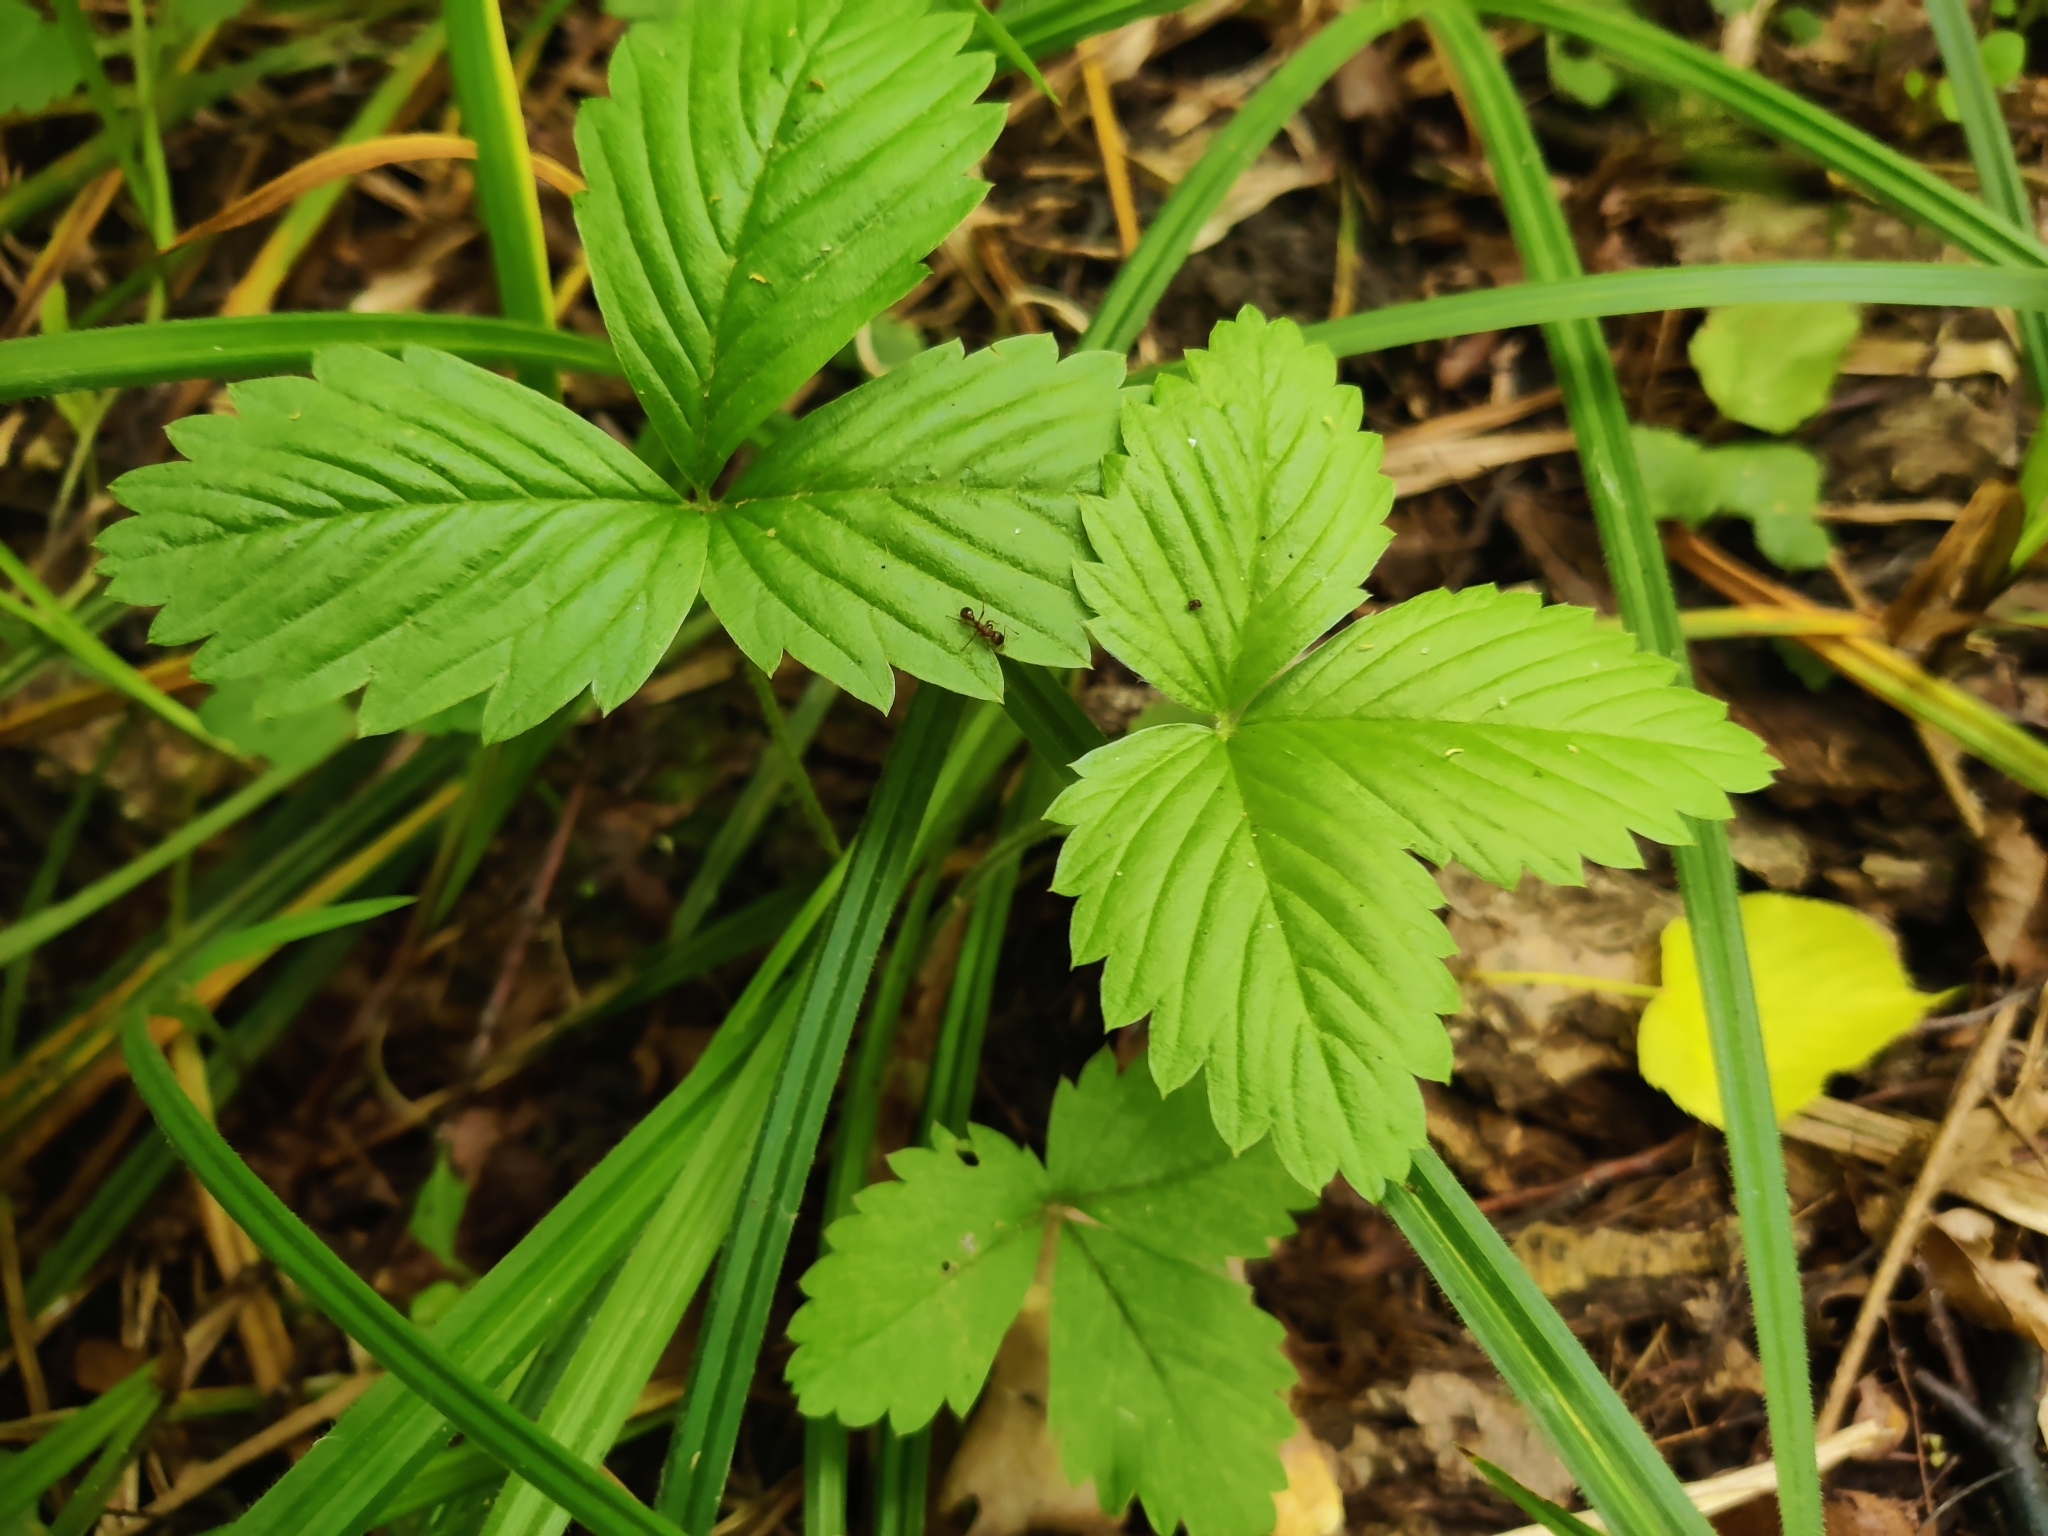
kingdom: Plantae
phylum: Tracheophyta
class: Magnoliopsida
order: Rosales
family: Rosaceae
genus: Fragaria
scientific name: Fragaria vesca
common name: Wild strawberry
